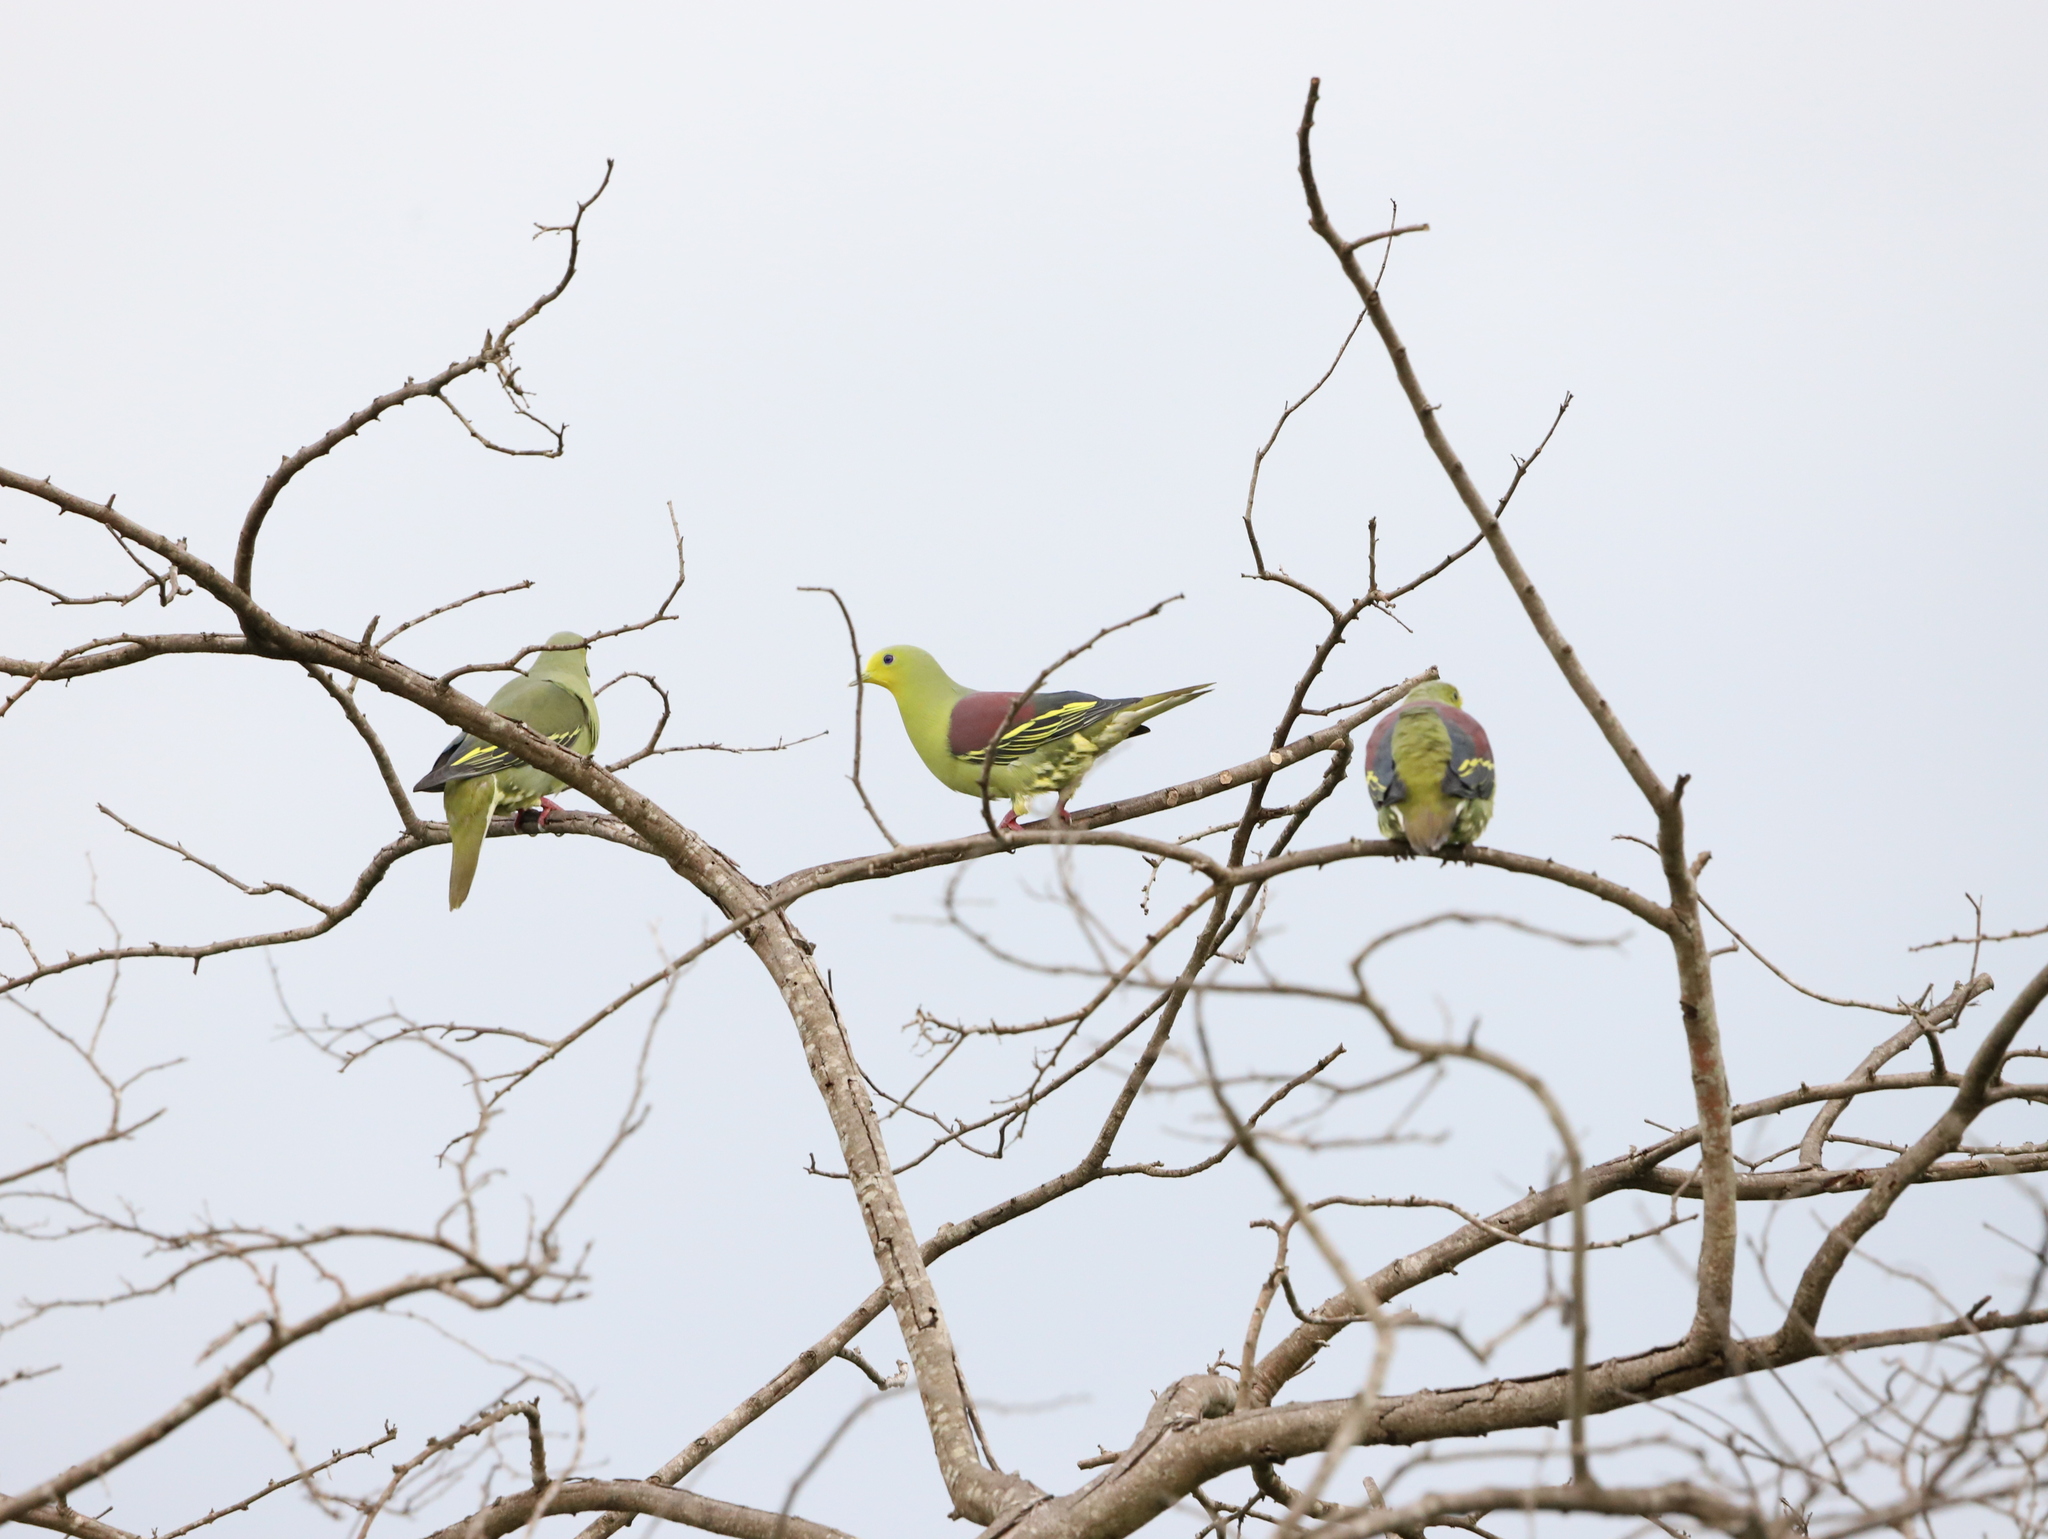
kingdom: Animalia
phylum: Chordata
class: Aves
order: Columbiformes
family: Columbidae
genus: Treron
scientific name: Treron pompadora
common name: Pompadour green pigeon
